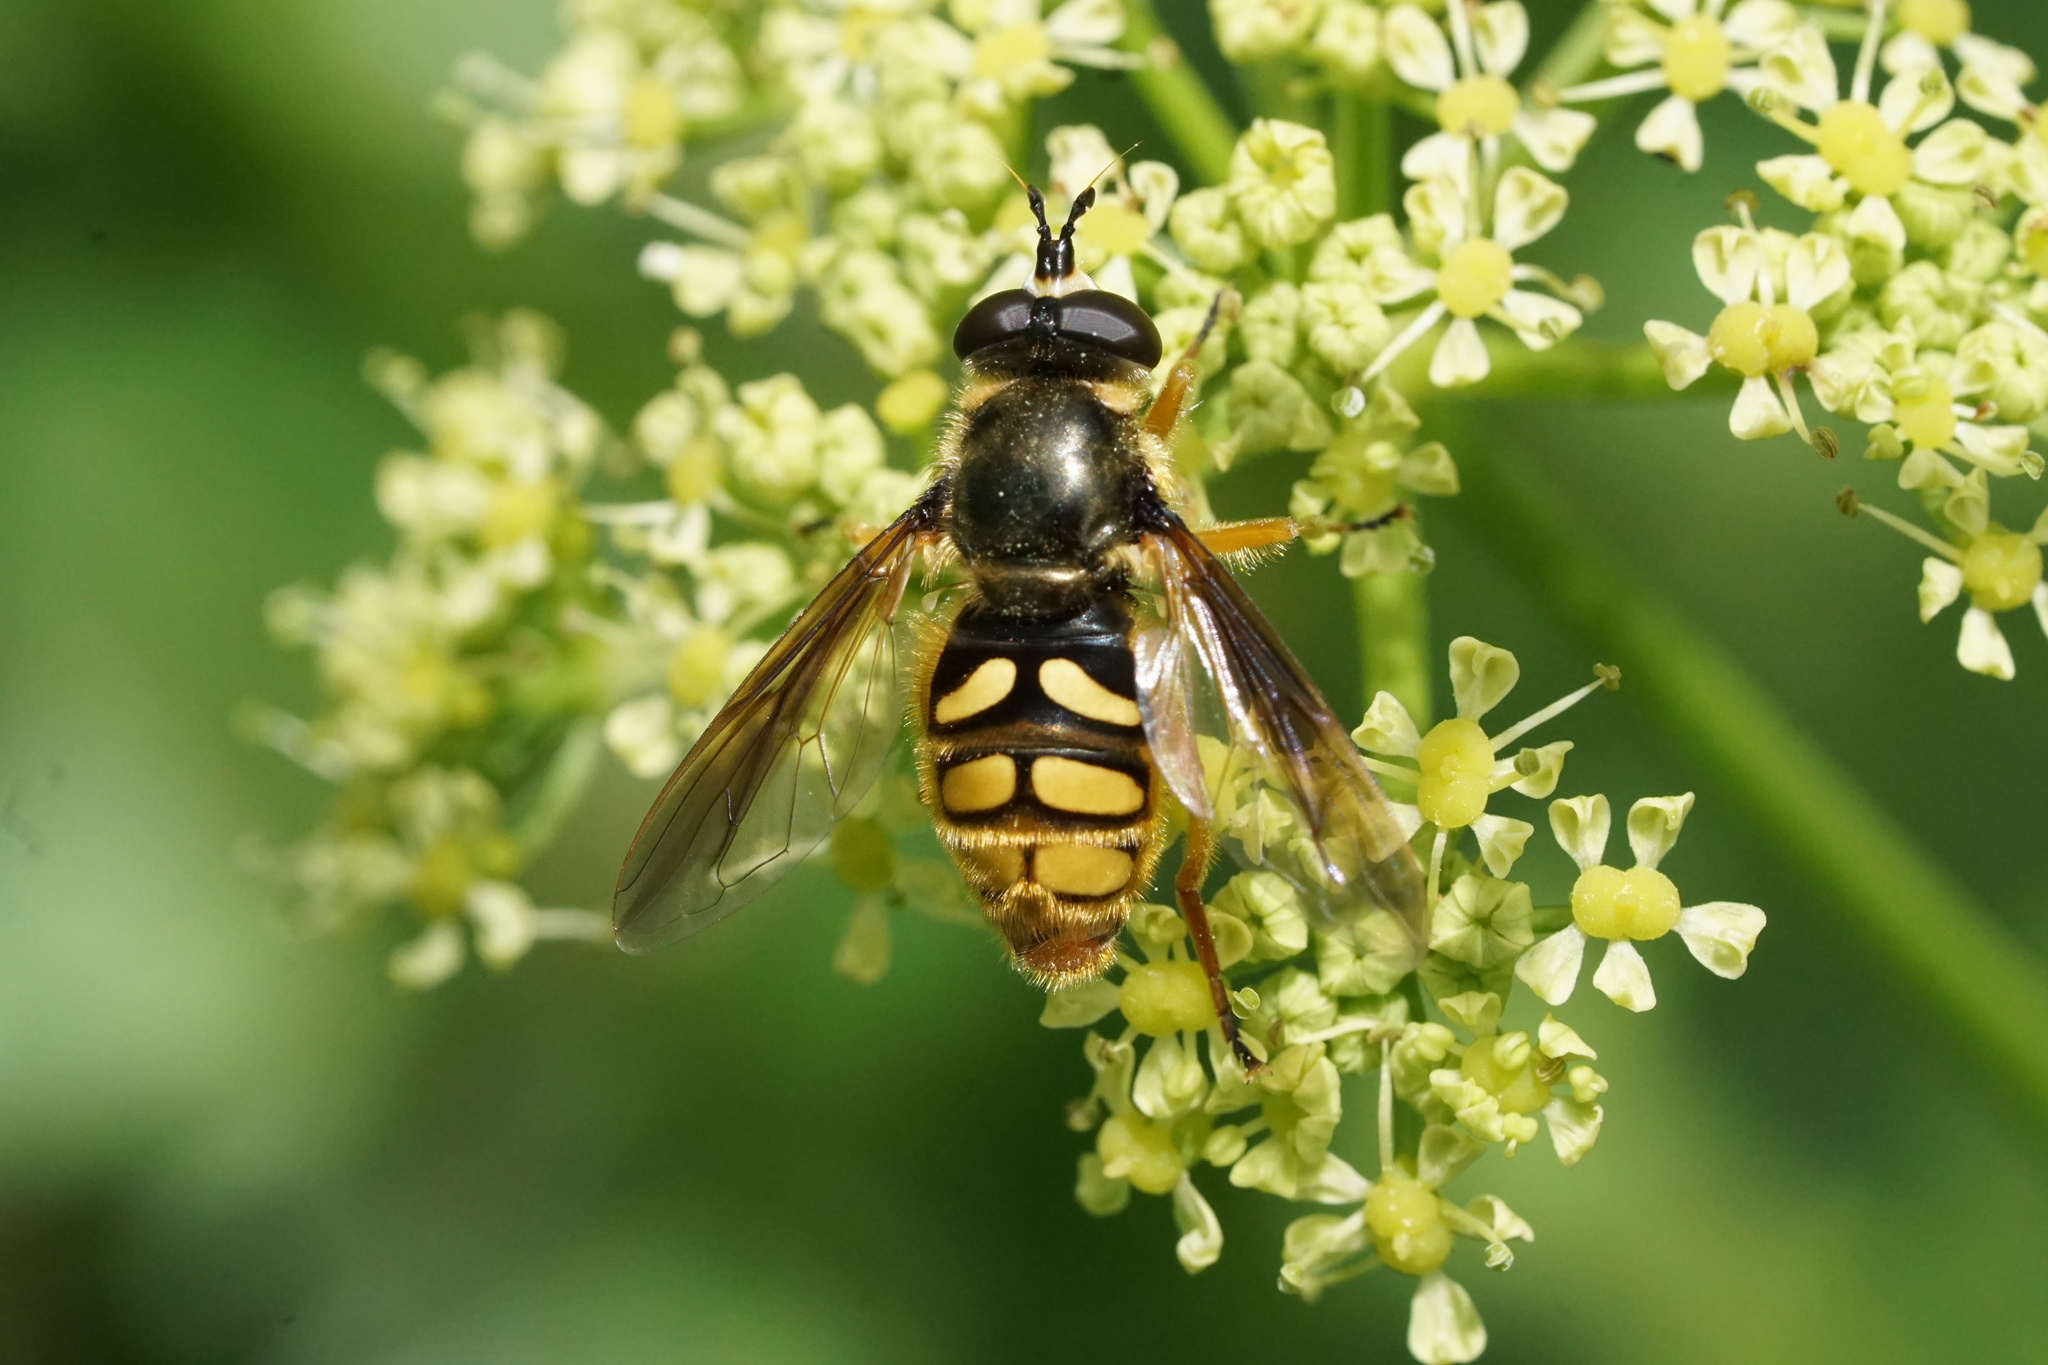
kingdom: Animalia
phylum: Arthropoda
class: Insecta
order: Diptera
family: Syrphidae
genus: Somula
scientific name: Somula decora
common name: Spotted wood fly
